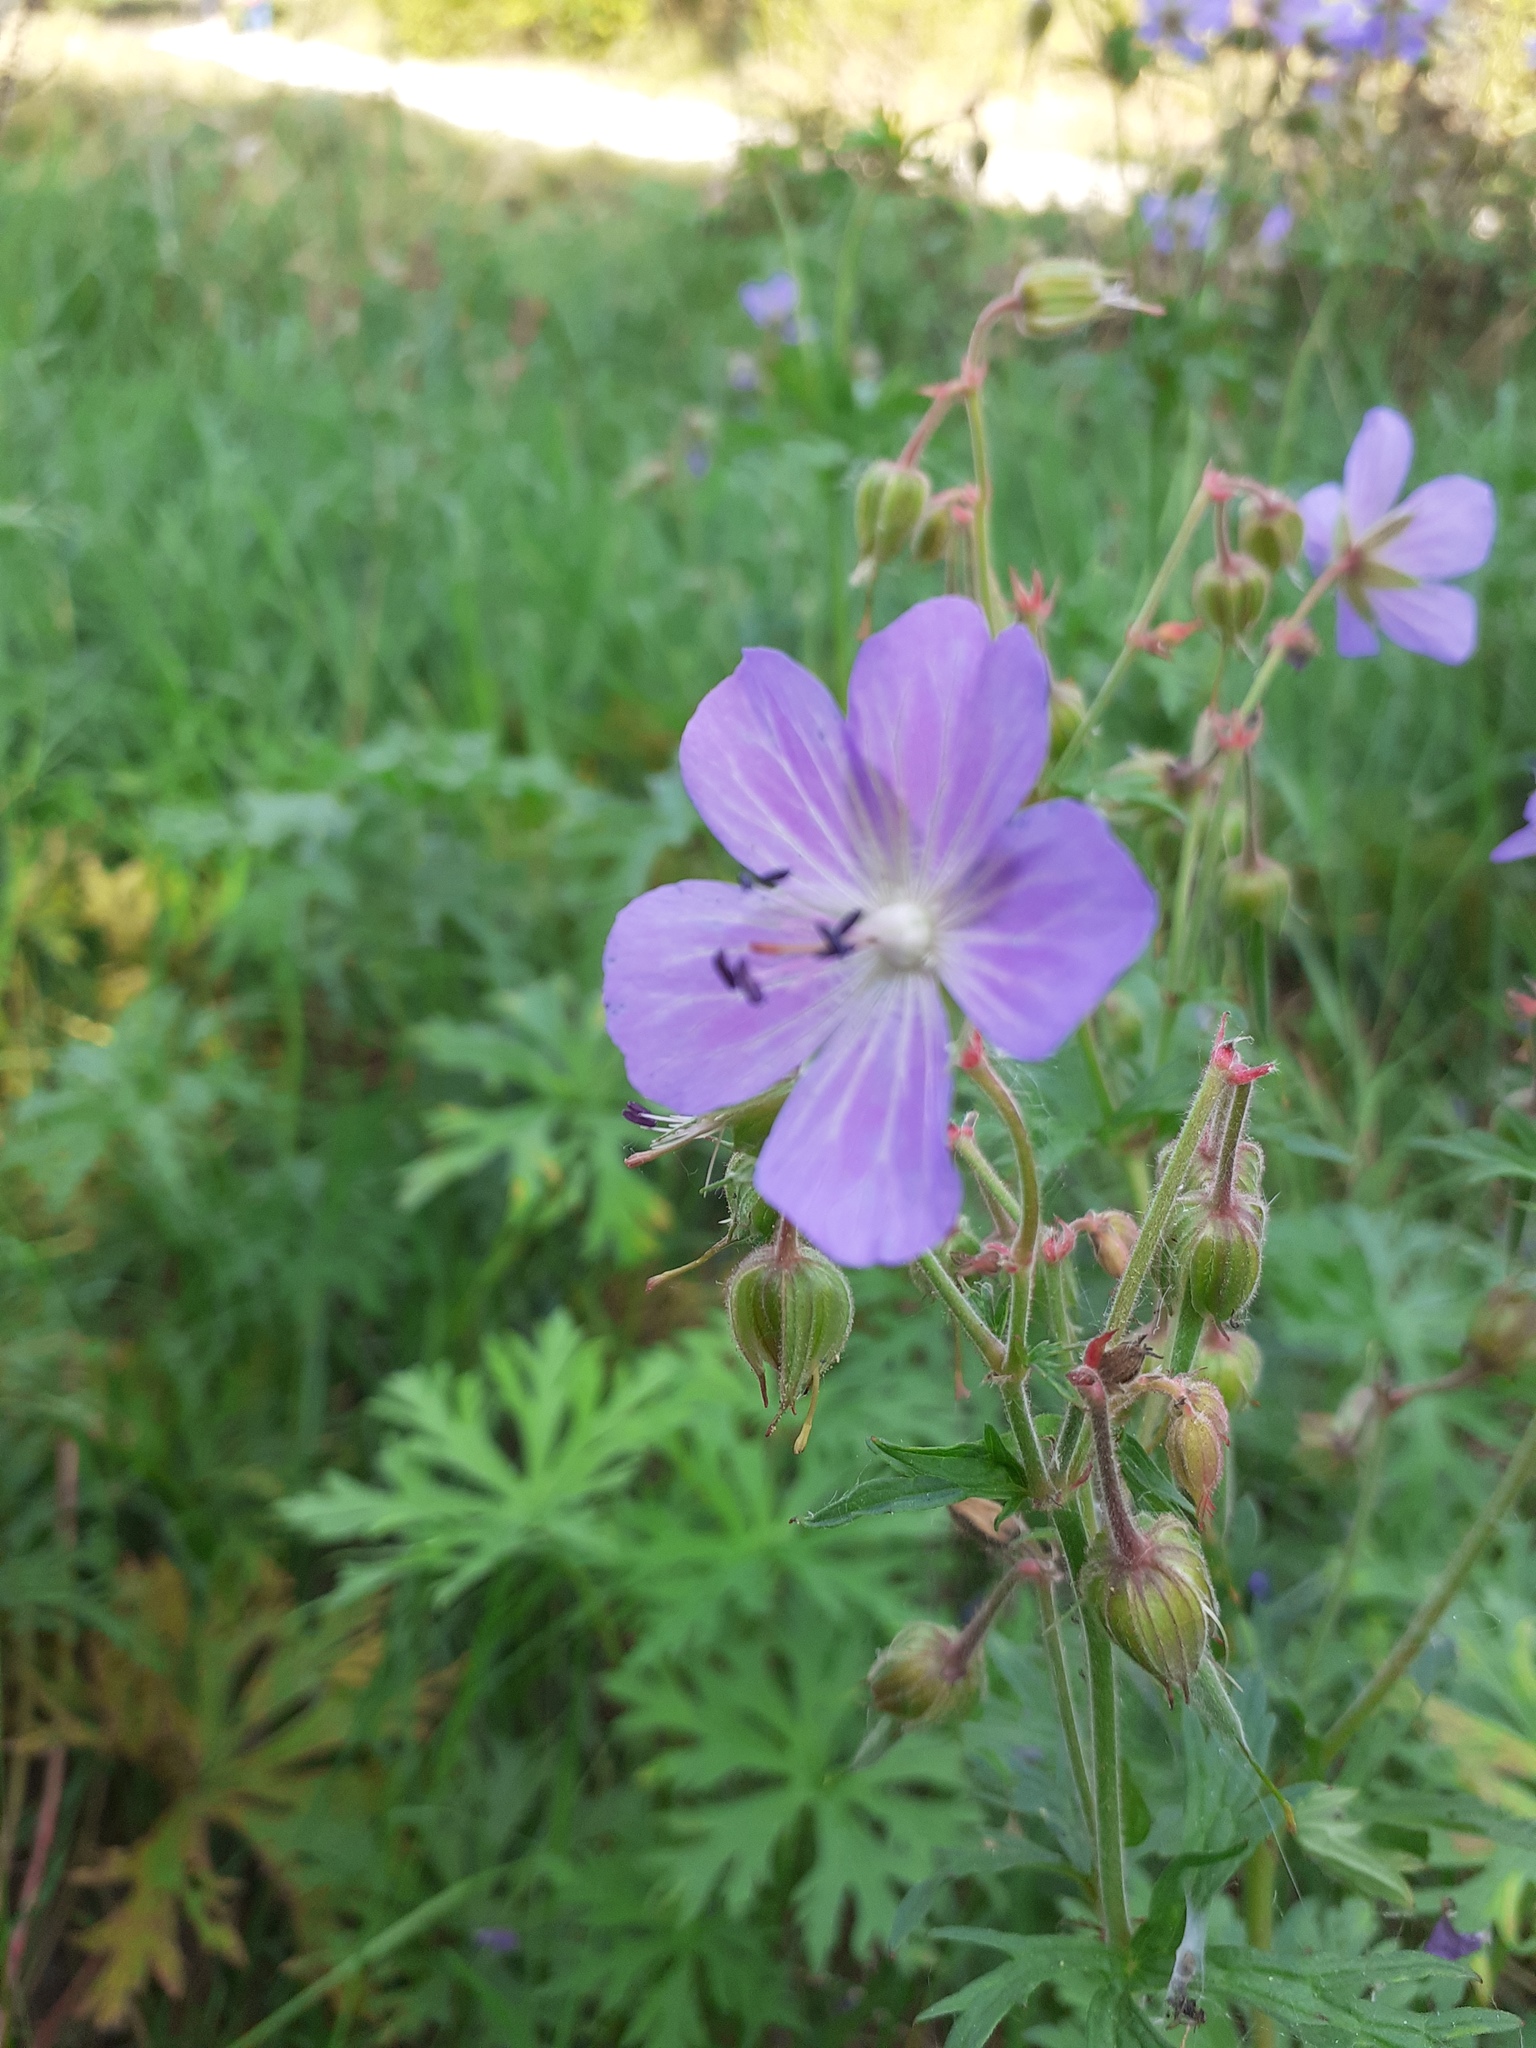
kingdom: Plantae
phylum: Tracheophyta
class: Magnoliopsida
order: Geraniales
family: Geraniaceae
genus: Geranium
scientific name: Geranium pratense
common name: Meadow crane's-bill
